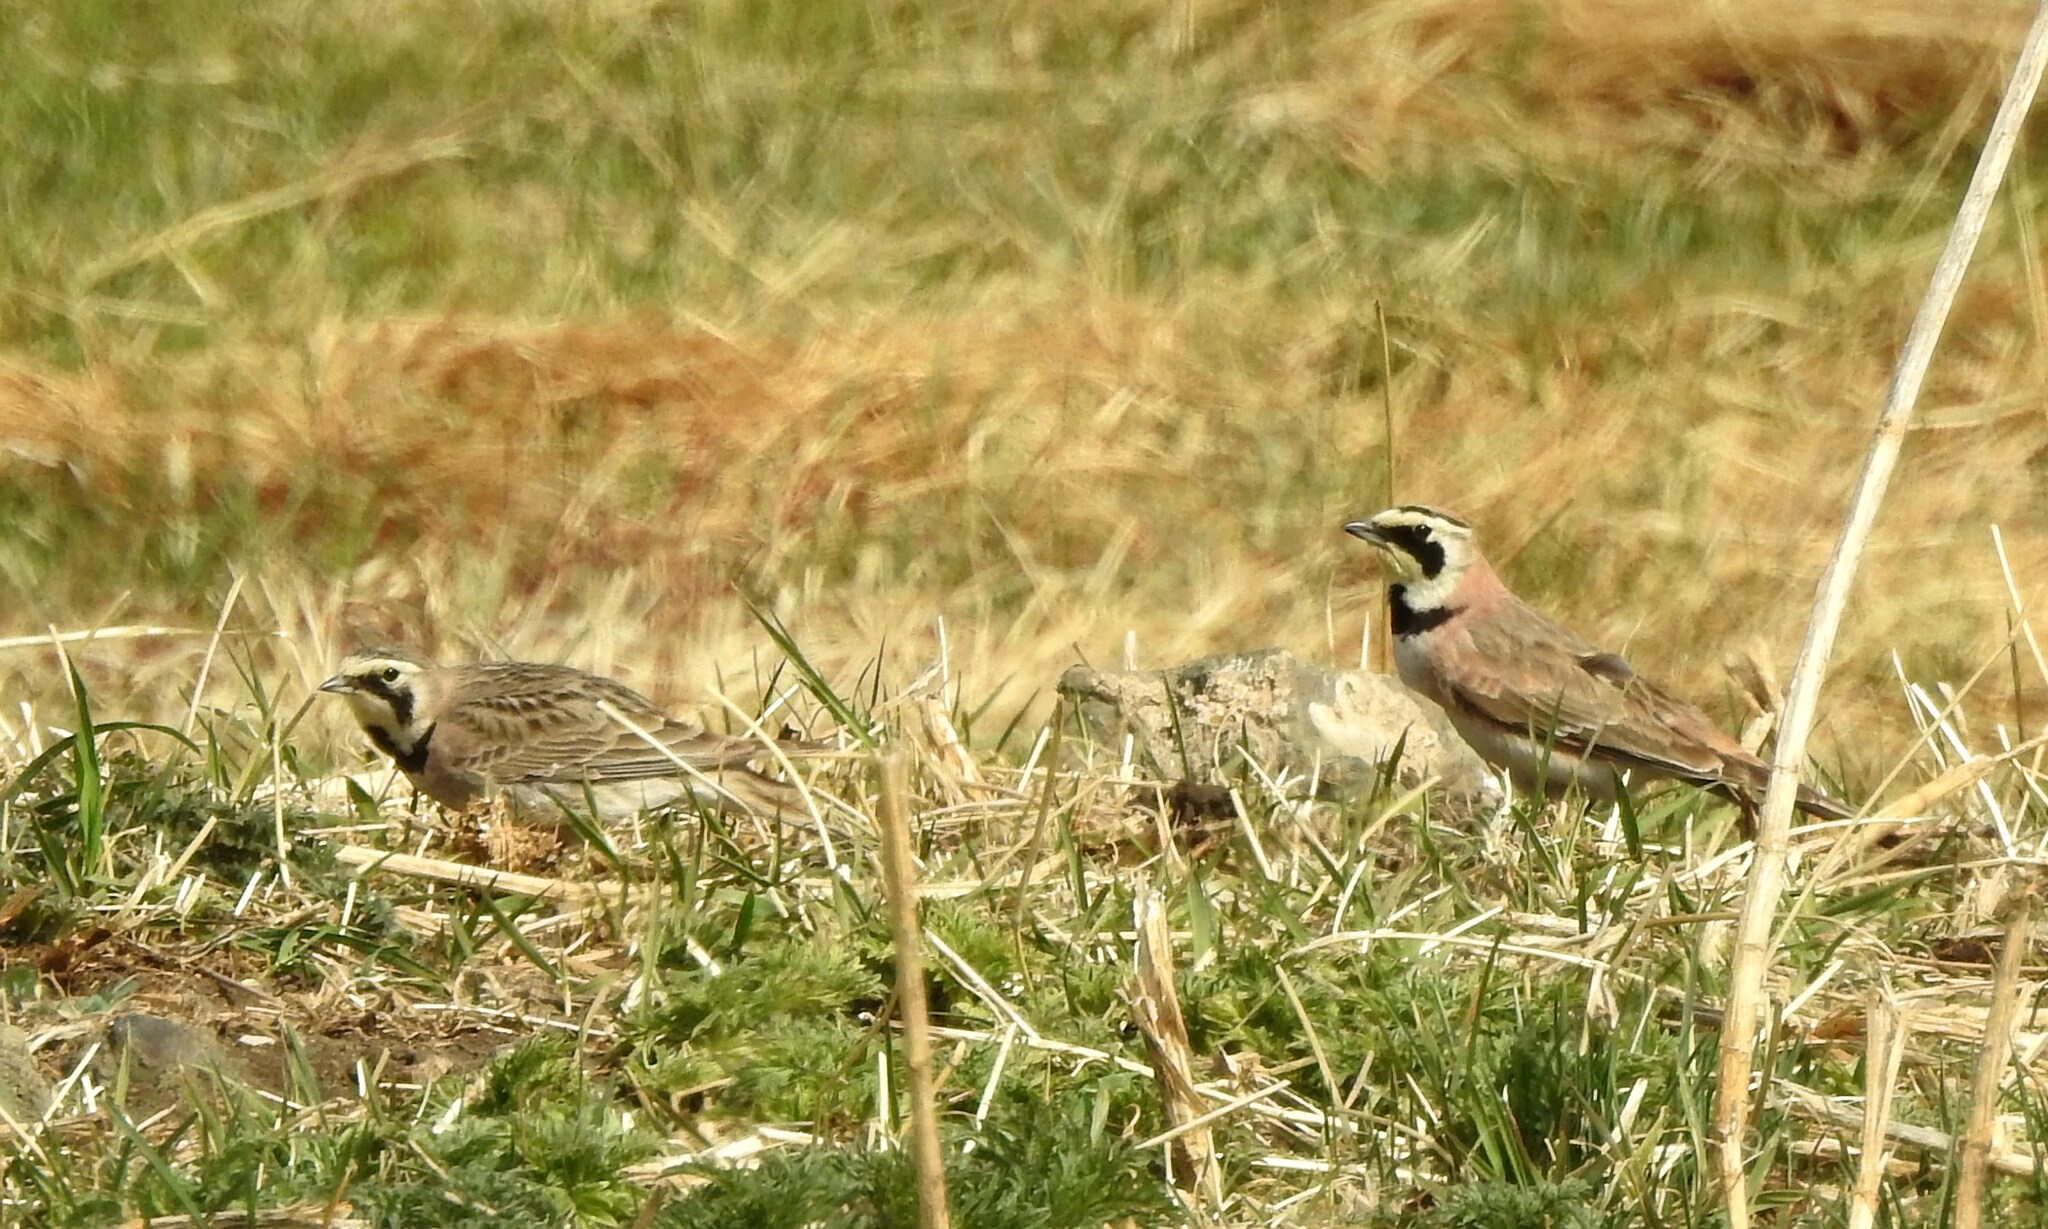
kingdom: Animalia
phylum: Chordata
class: Aves
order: Passeriformes
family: Alaudidae
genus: Eremophila
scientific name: Eremophila alpestris
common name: Horned lark
